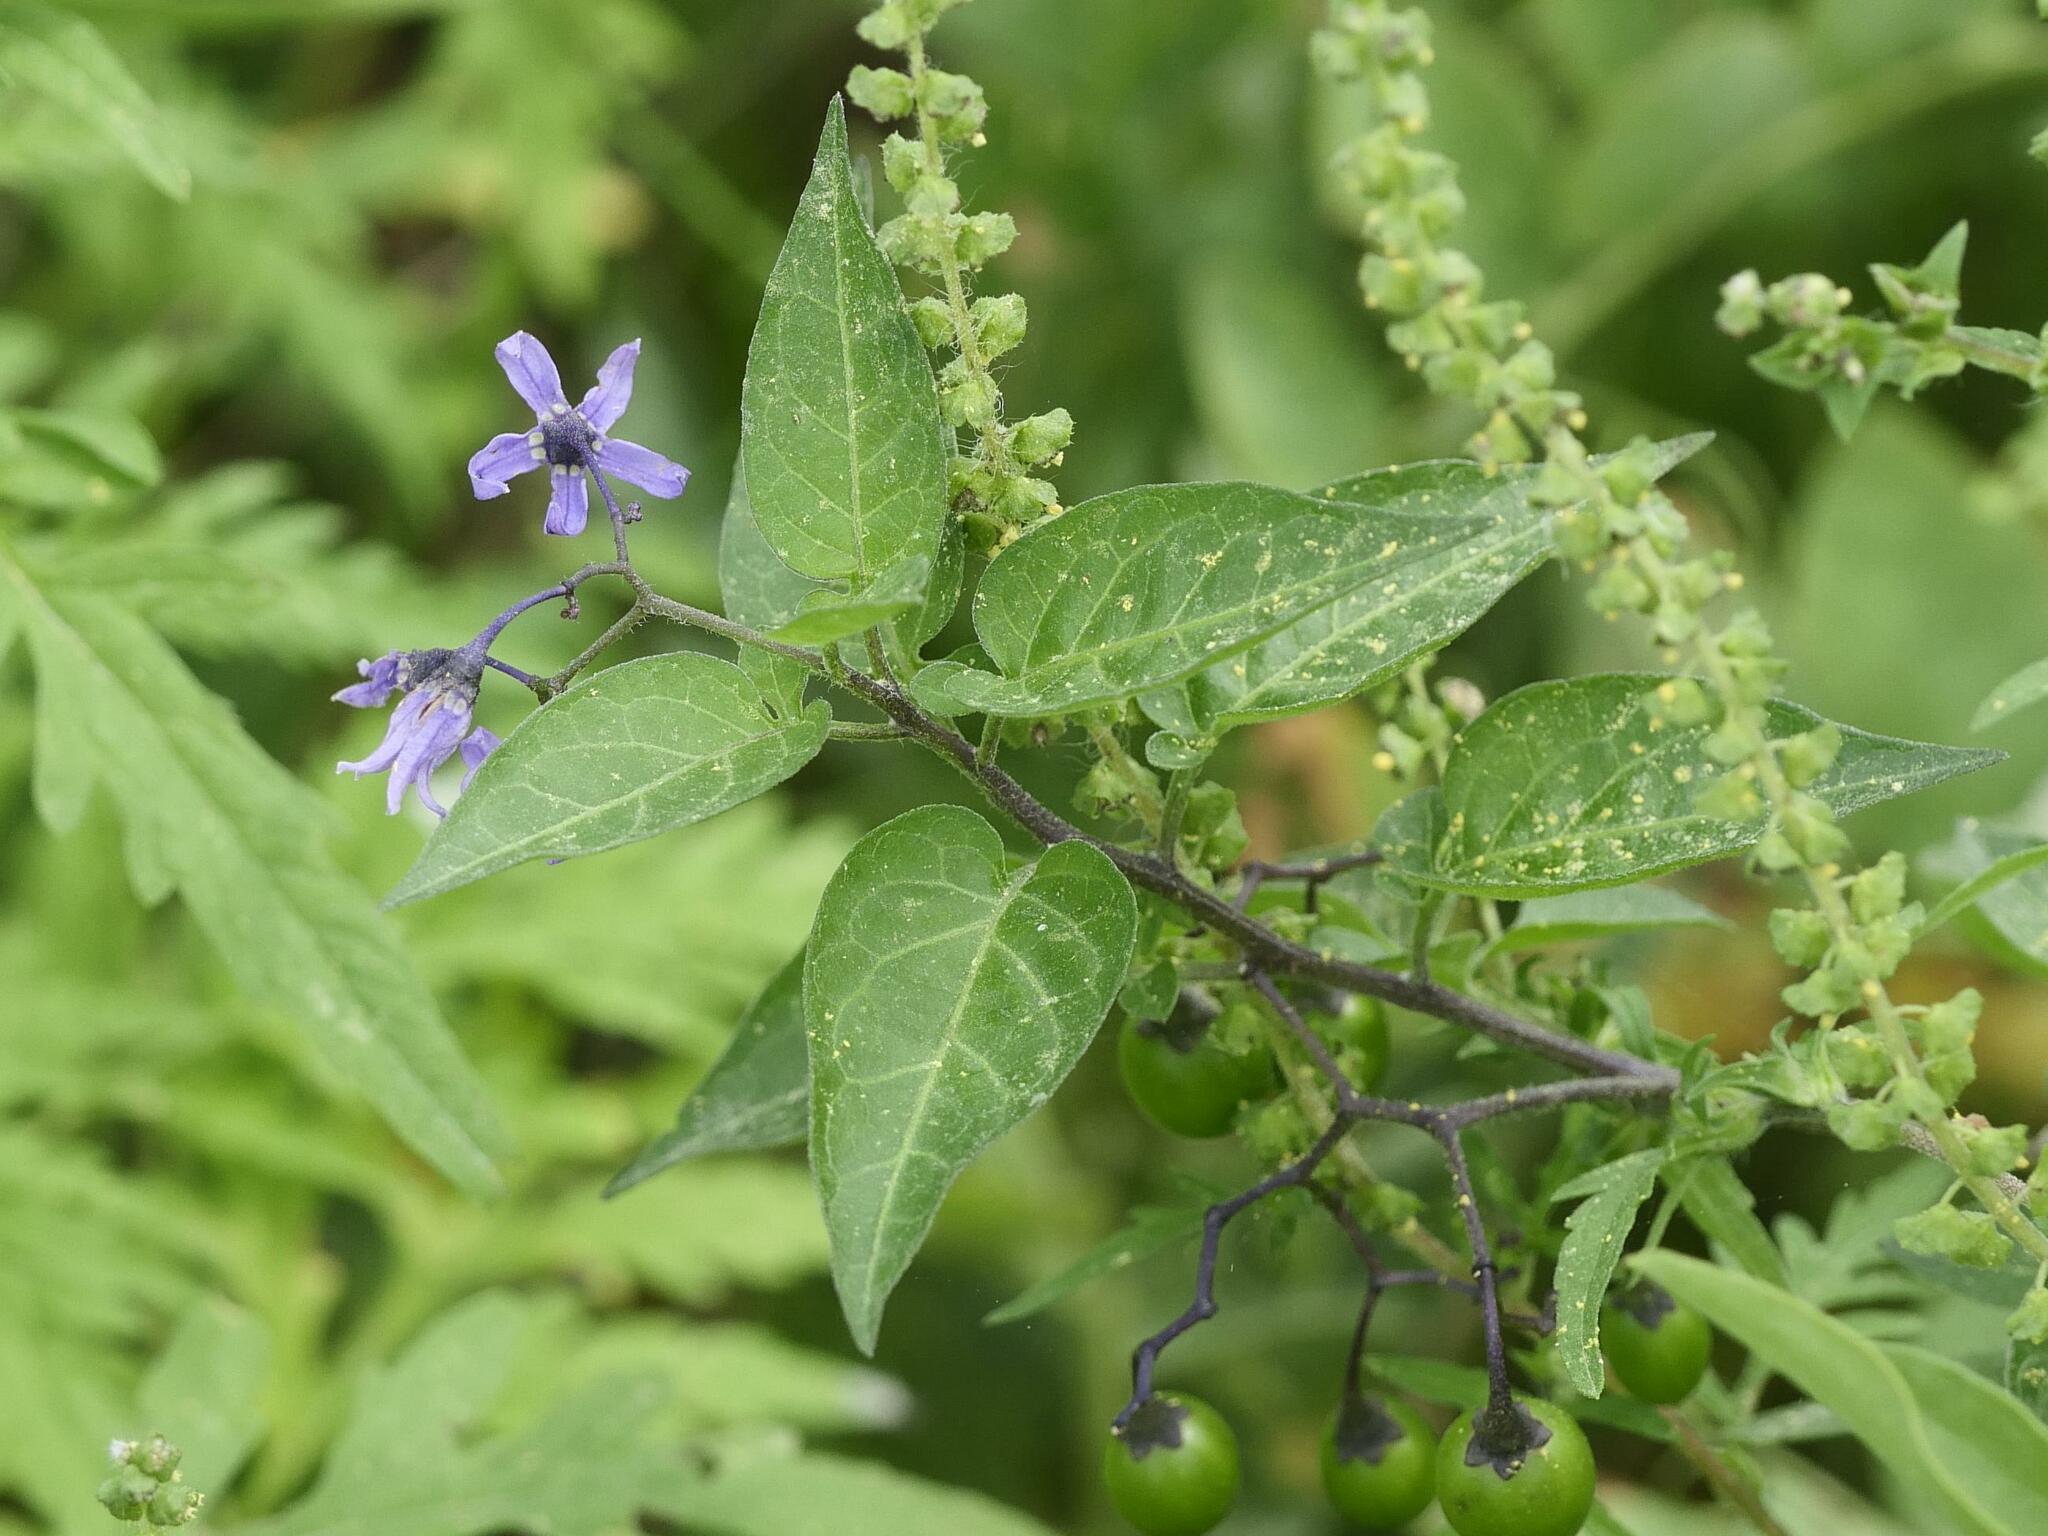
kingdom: Plantae
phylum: Tracheophyta
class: Magnoliopsida
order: Solanales
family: Solanaceae
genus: Solanum
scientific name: Solanum dulcamara
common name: Climbing nightshade
